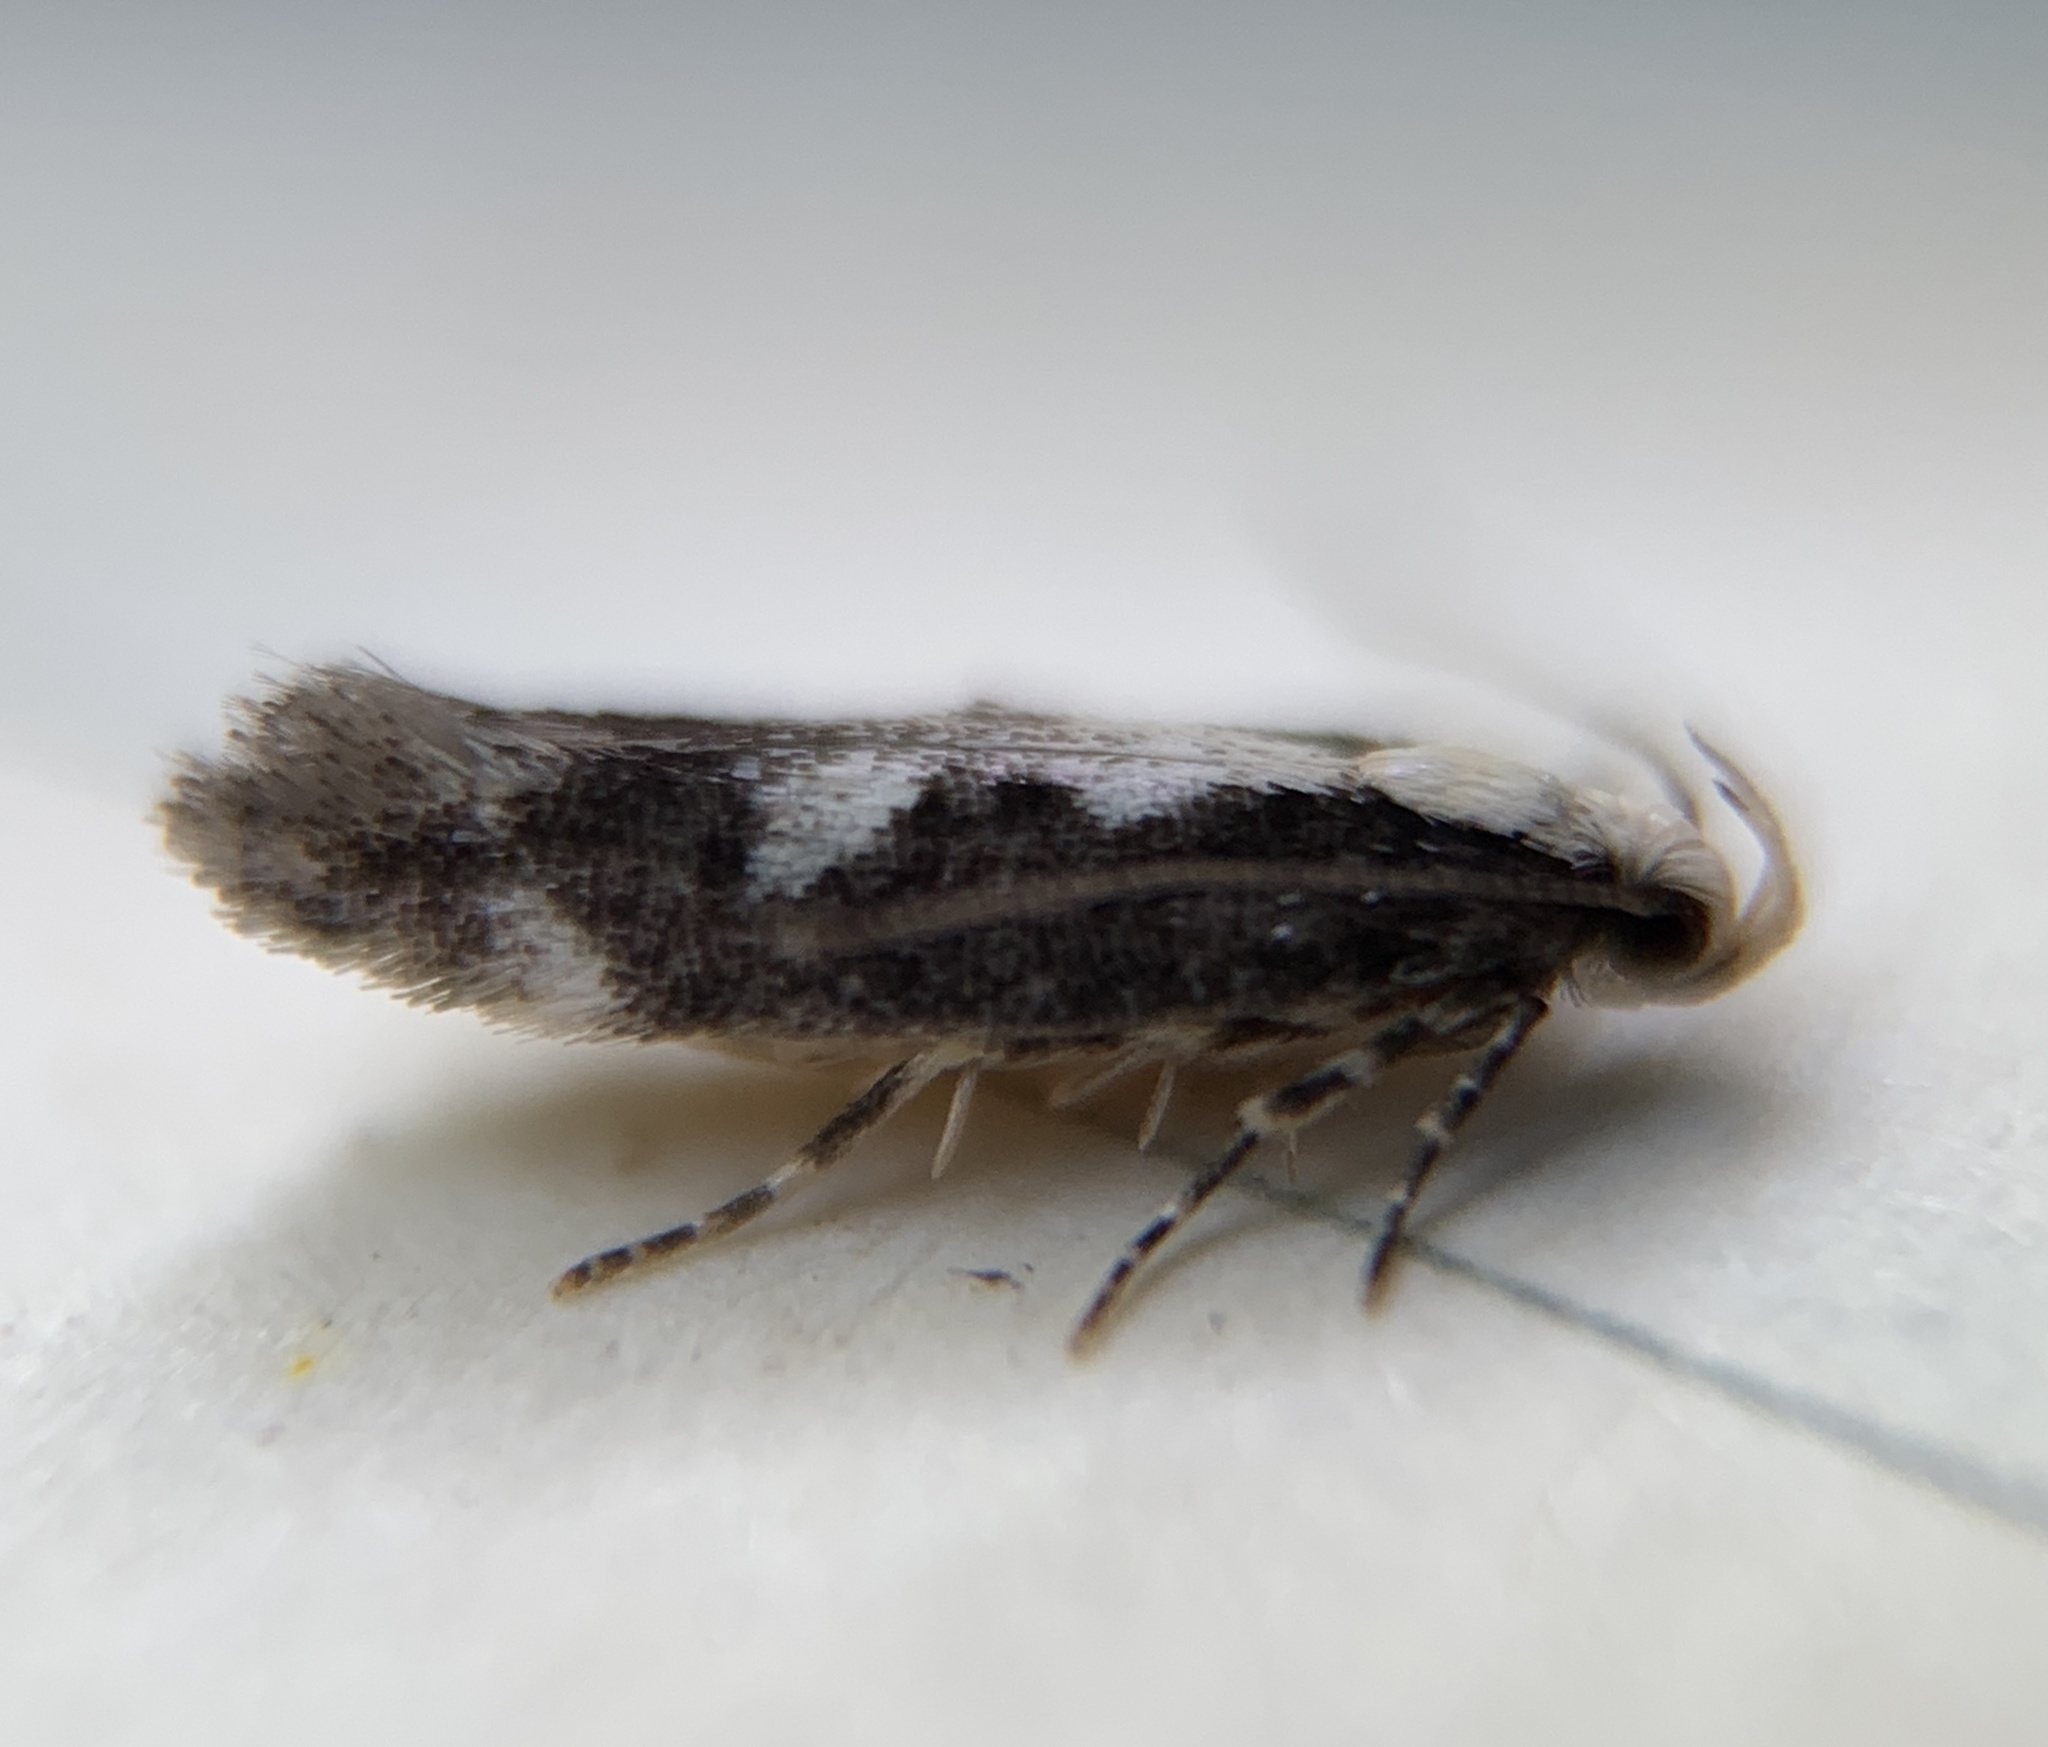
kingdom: Animalia
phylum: Arthropoda
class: Insecta
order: Lepidoptera
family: Gelechiidae
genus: Agnippe
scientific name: Agnippe prunifoliella
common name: Skunk twirler
